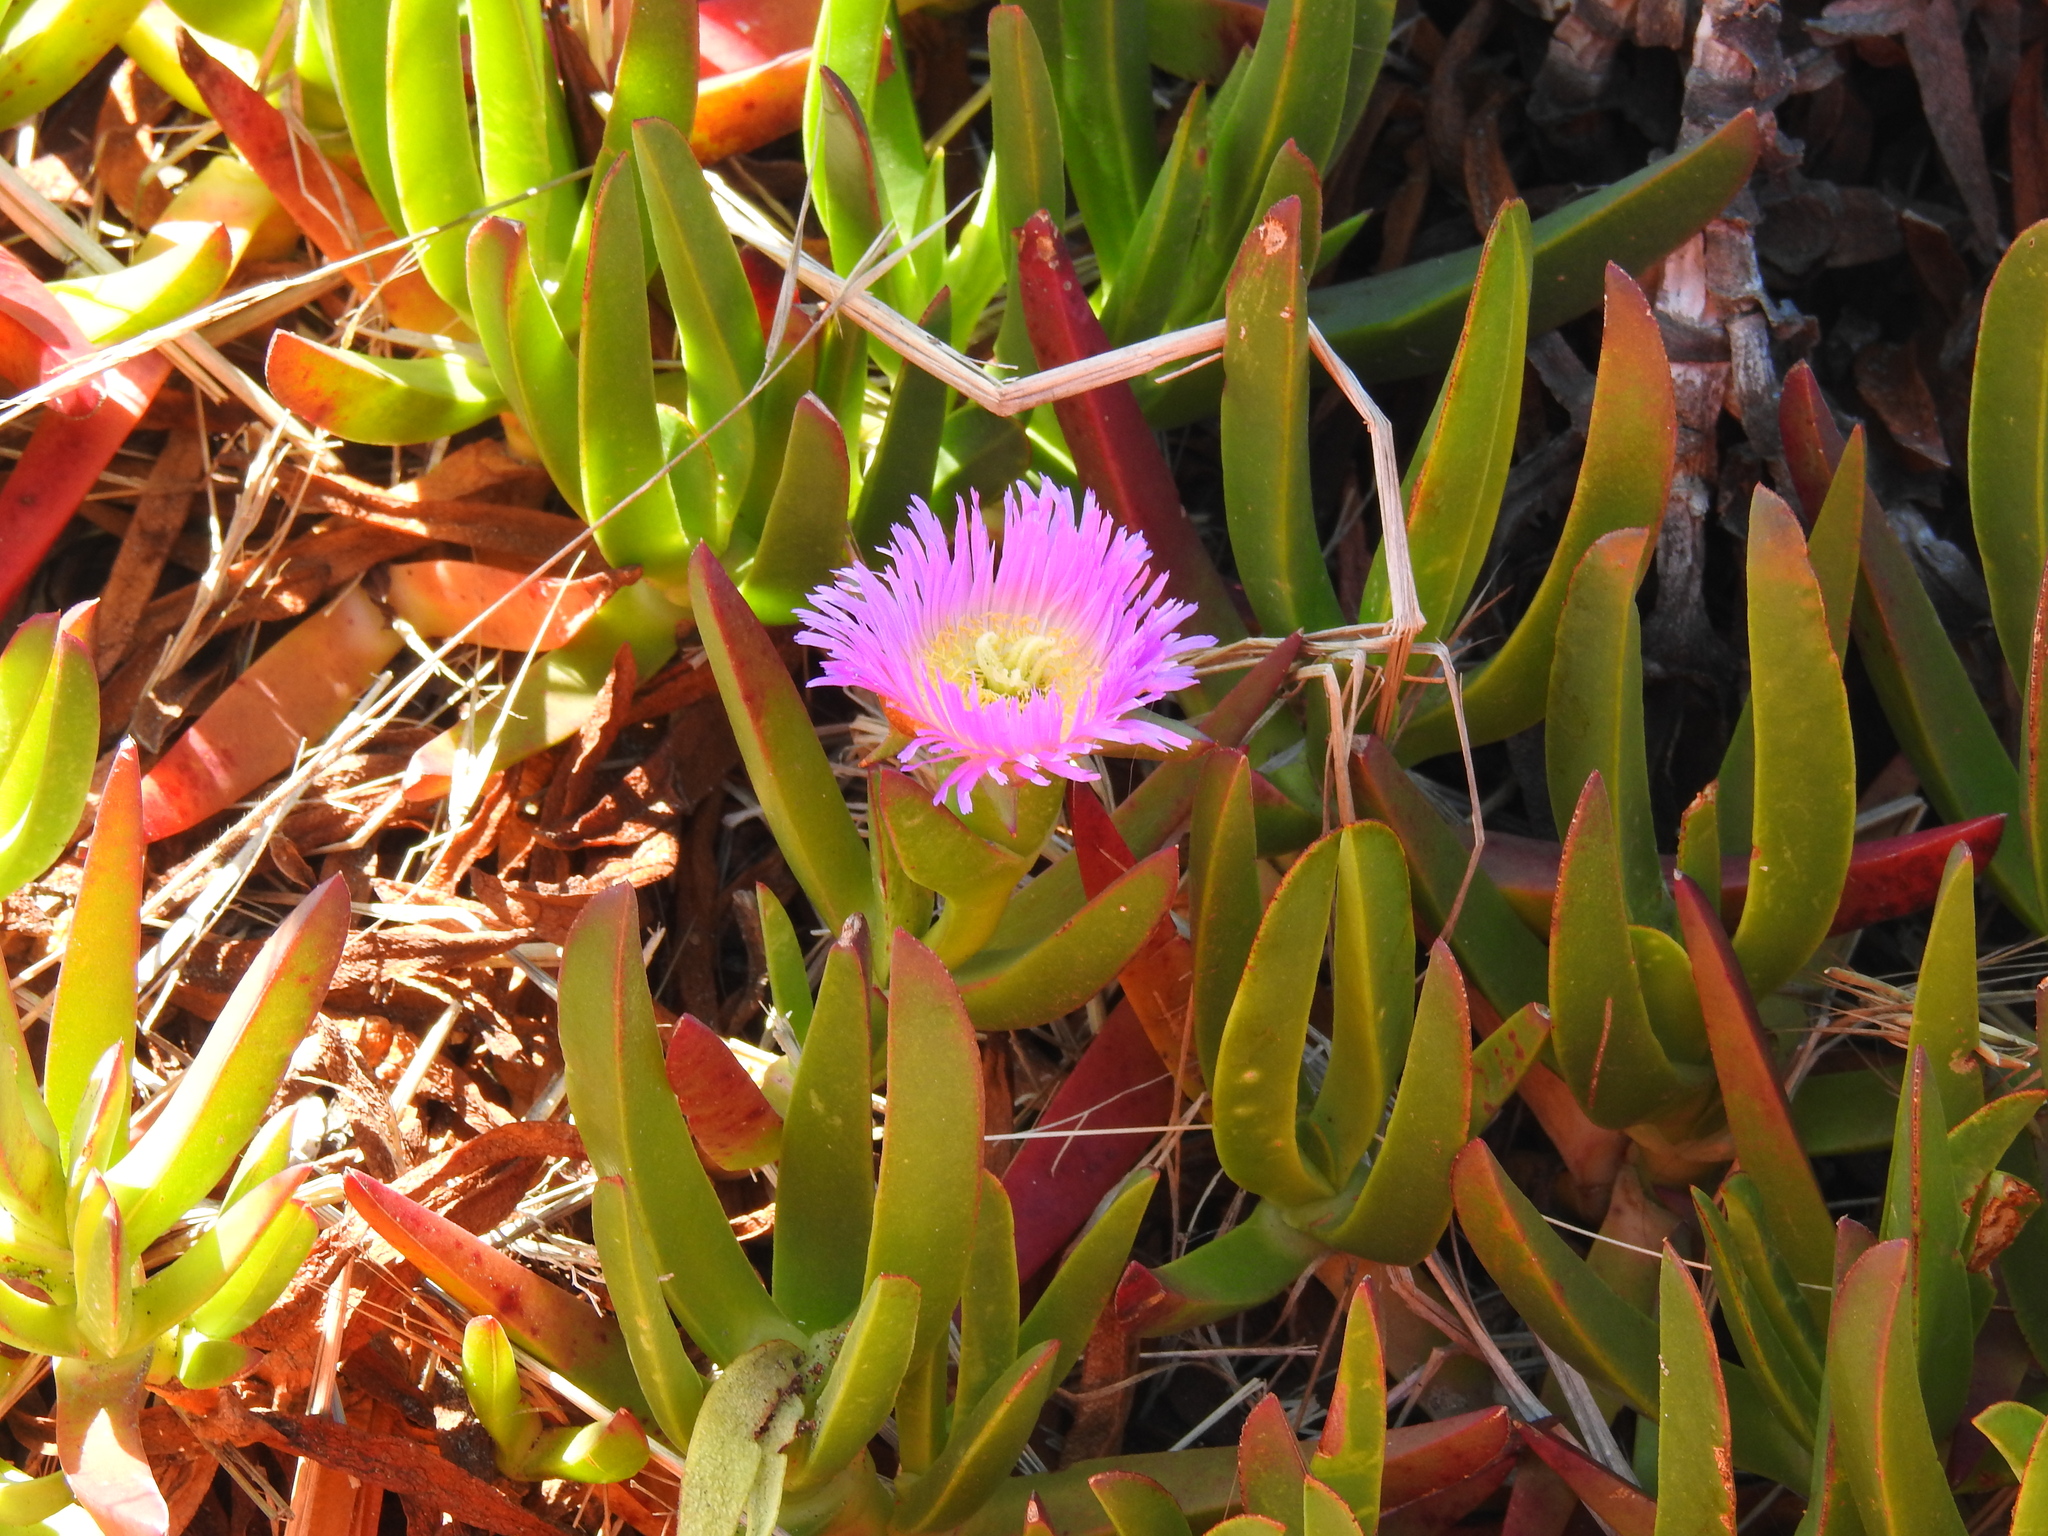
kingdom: Plantae
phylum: Tracheophyta
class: Magnoliopsida
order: Caryophyllales
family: Aizoaceae
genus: Carpobrotus
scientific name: Carpobrotus chilensis
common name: Sea fig
